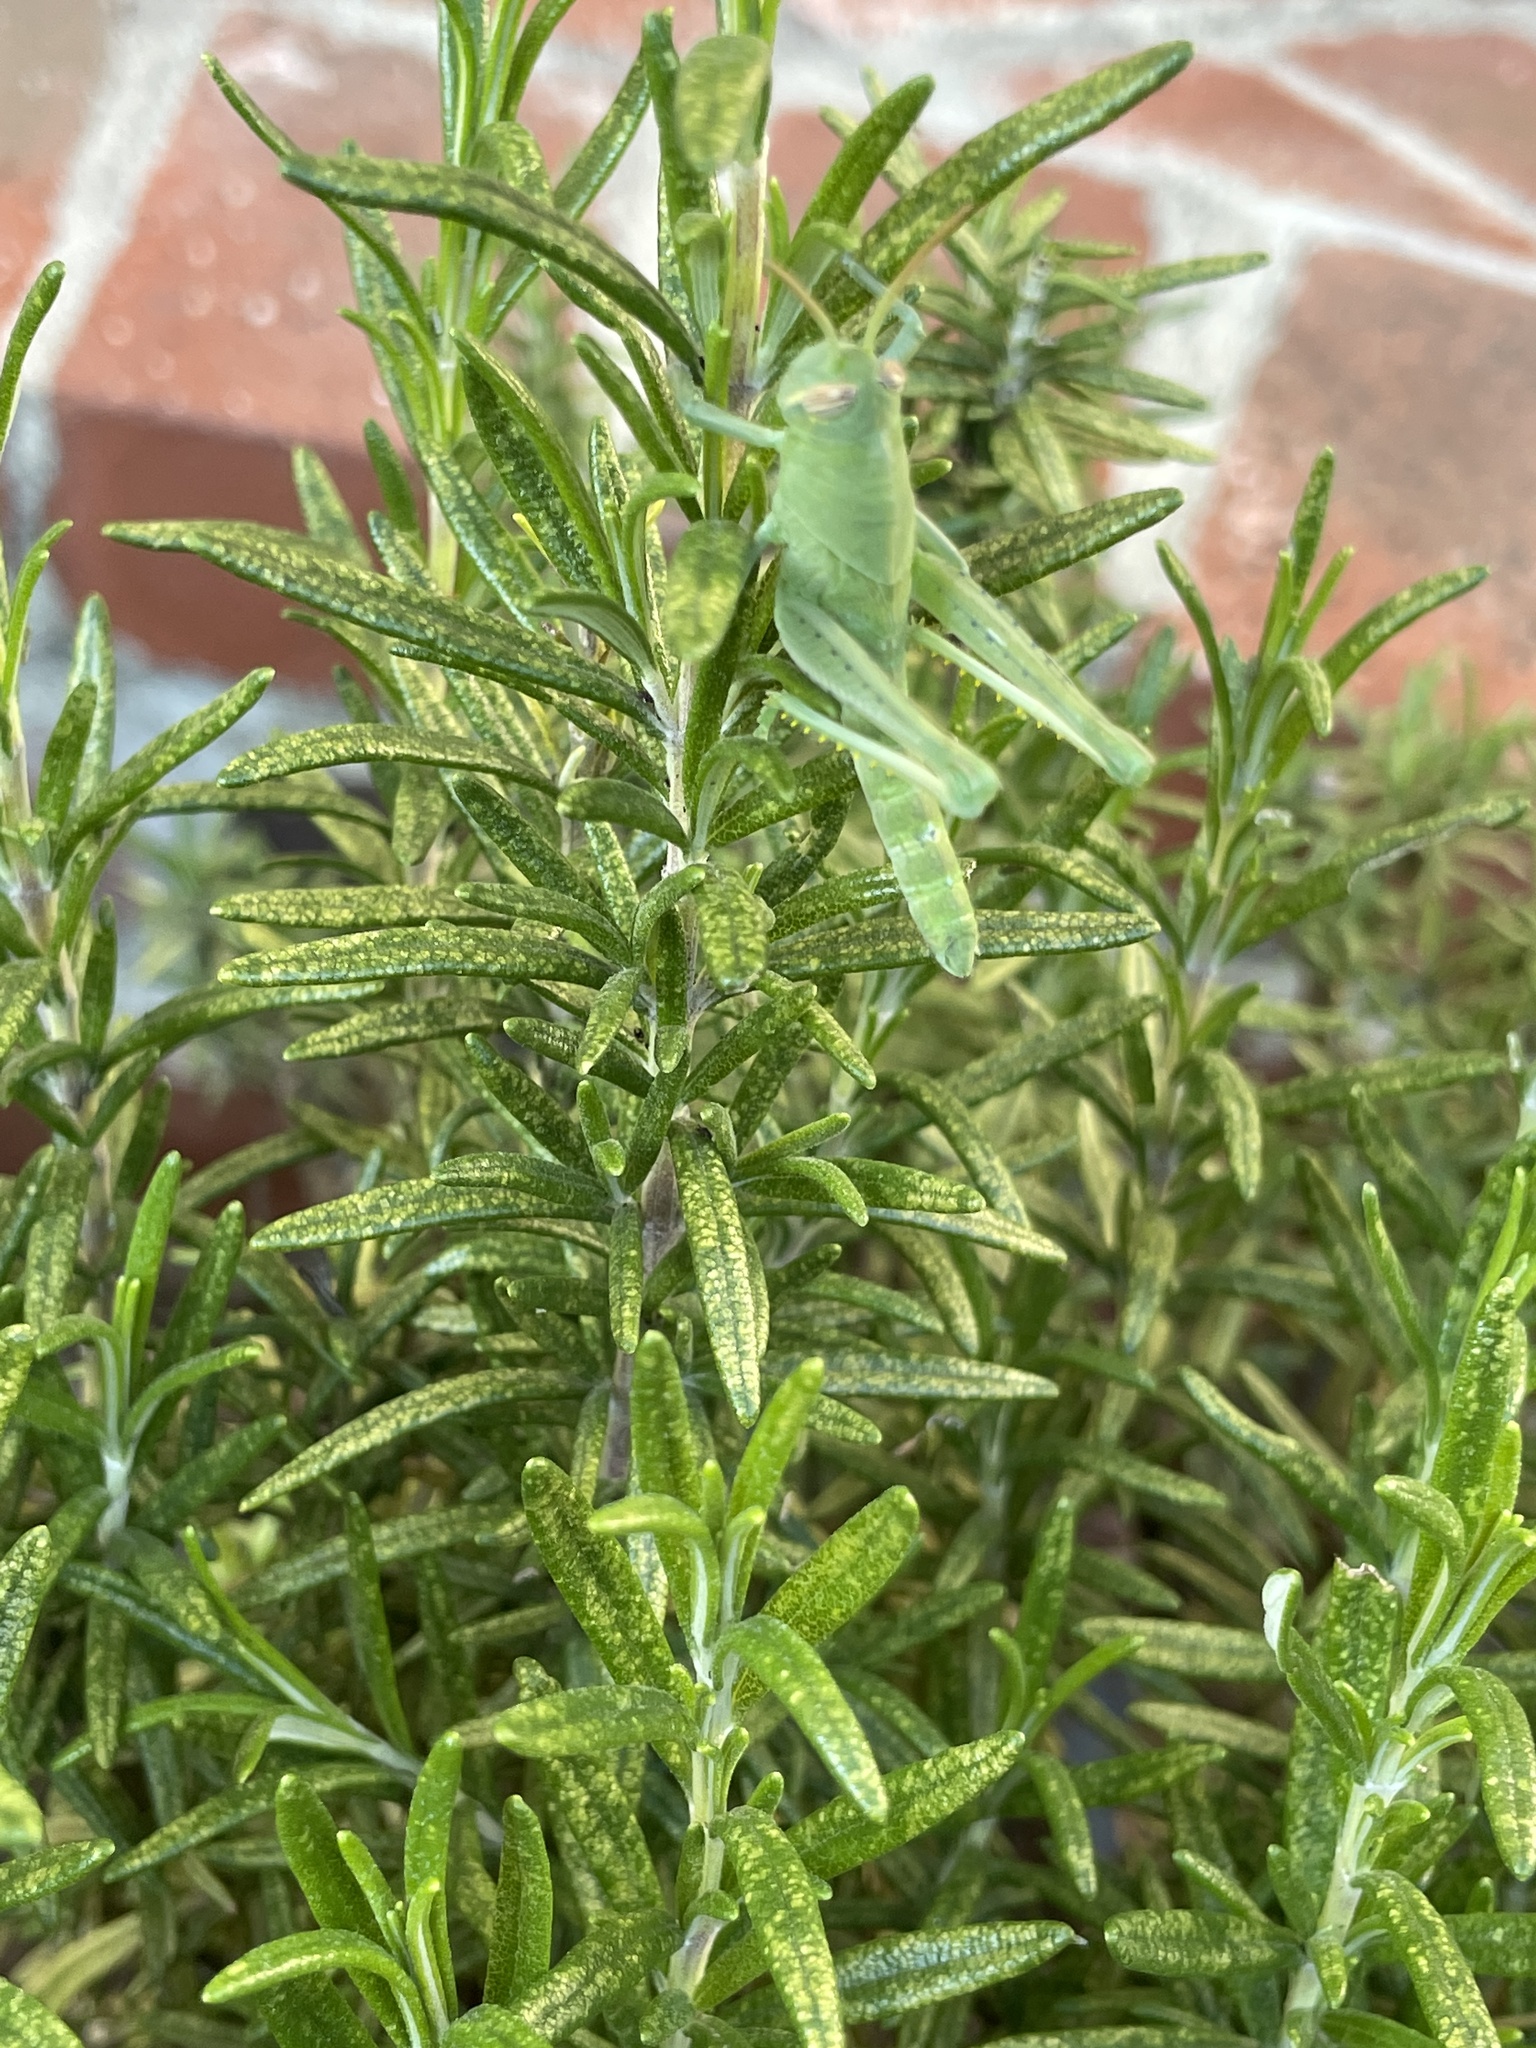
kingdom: Animalia
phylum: Arthropoda
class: Insecta
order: Orthoptera
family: Acrididae
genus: Schistocerca
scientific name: Schistocerca nitens
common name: Vagrant grasshopper
